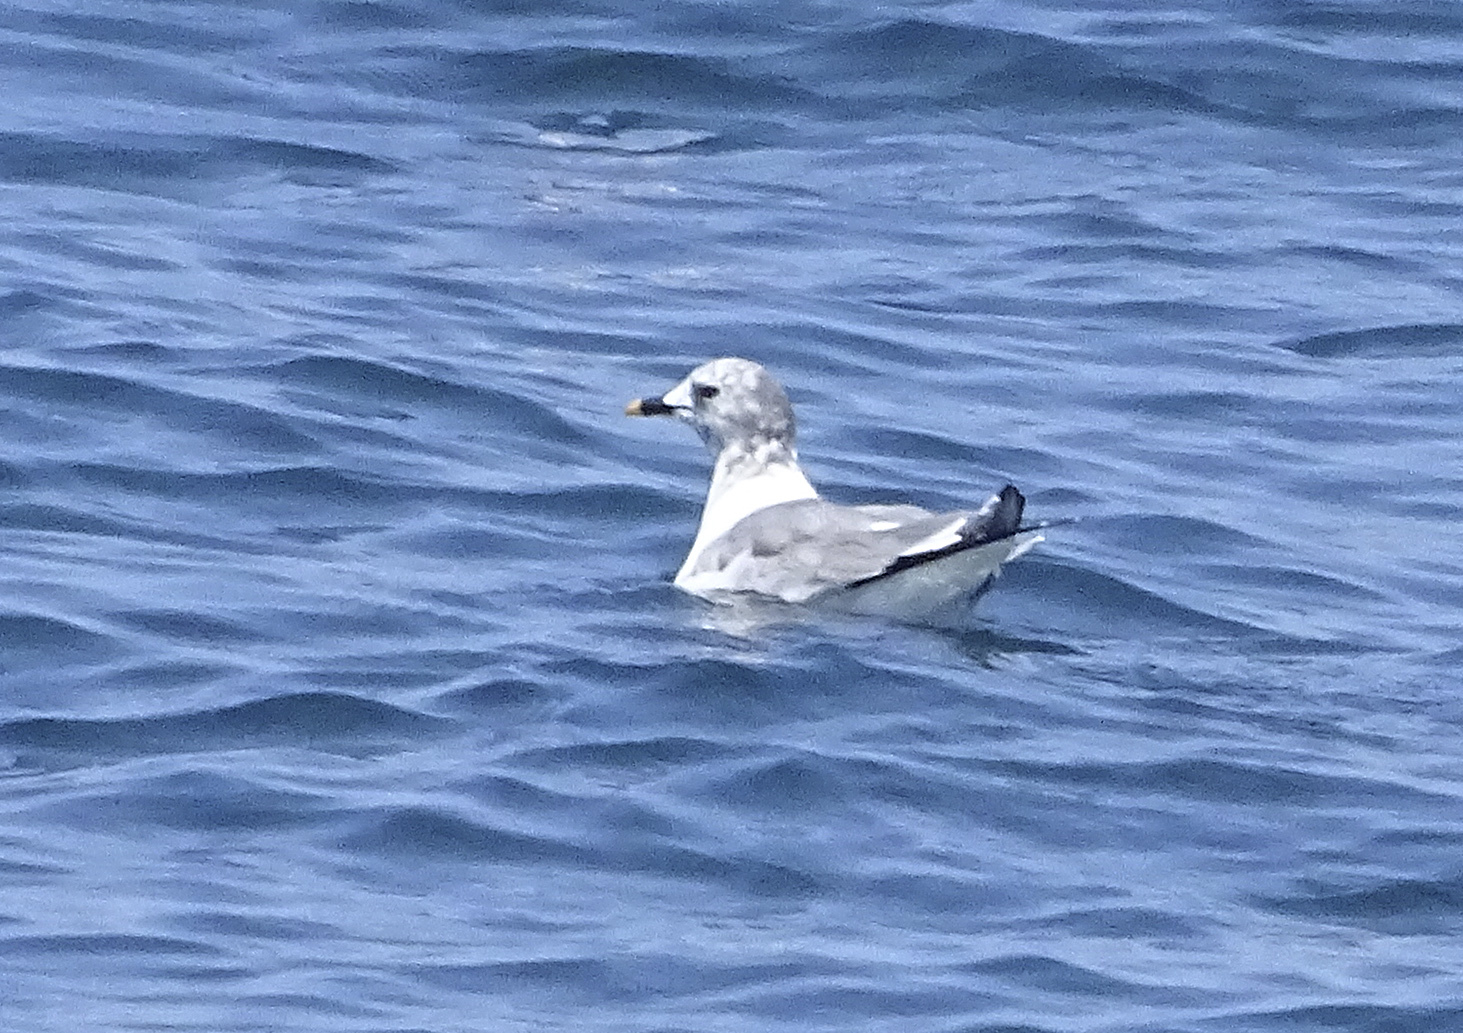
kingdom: Animalia
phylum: Chordata
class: Aves
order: Charadriiformes
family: Laridae
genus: Xema
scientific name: Xema sabini
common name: Sabine's gull
